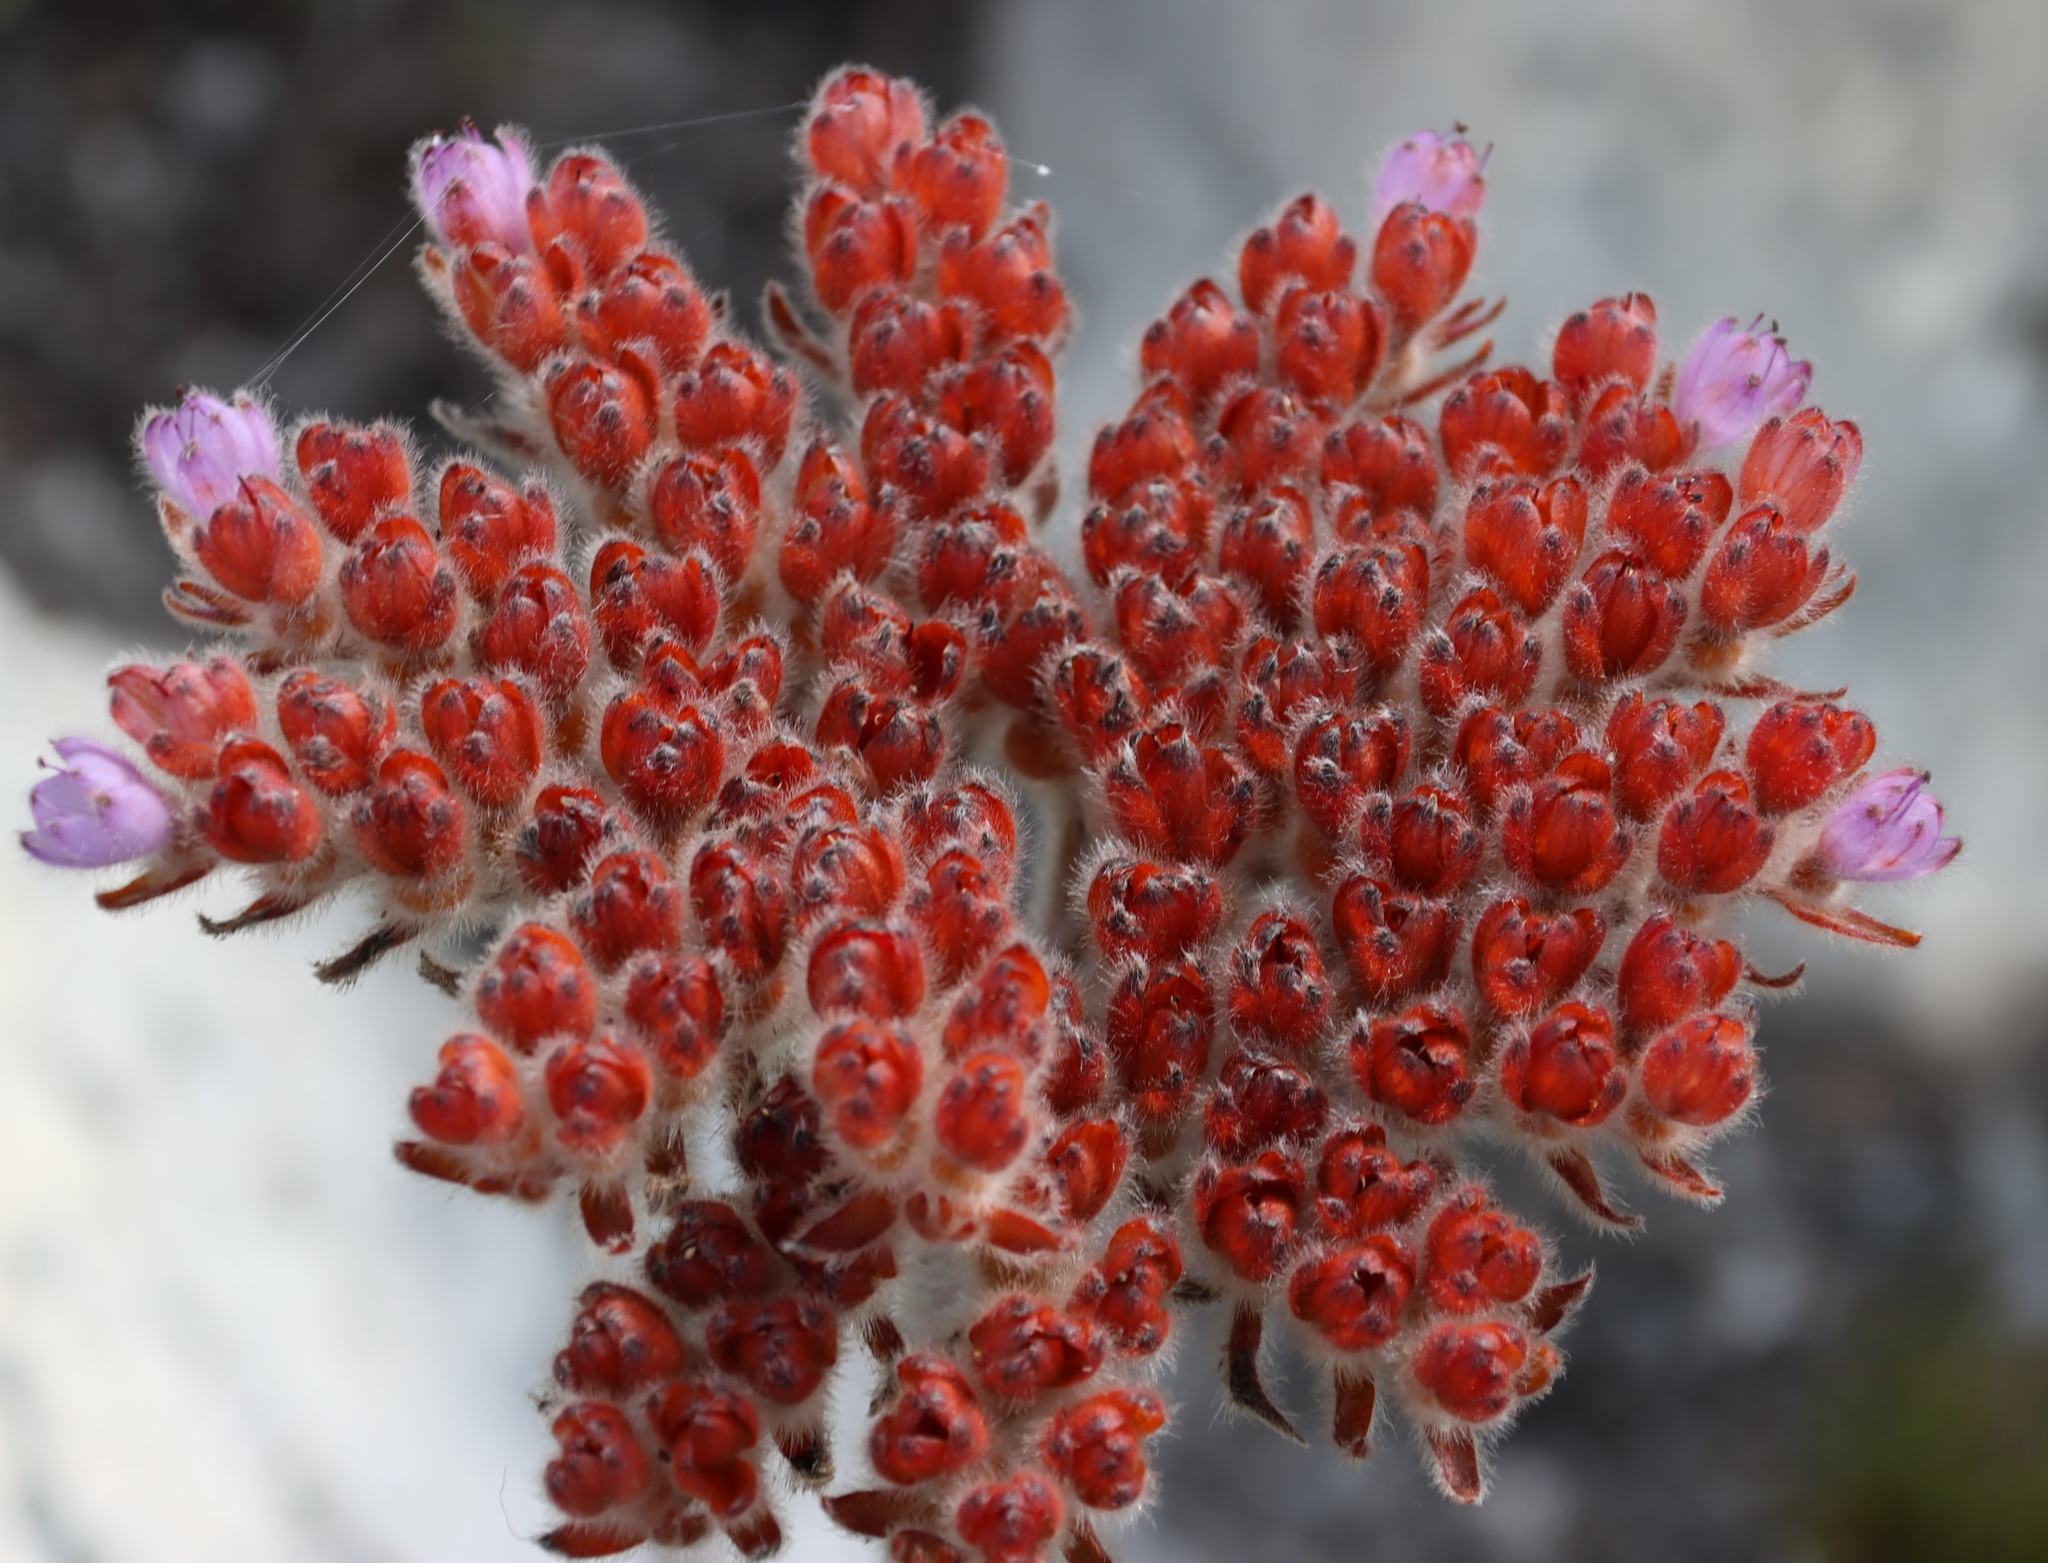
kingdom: Plantae
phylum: Tracheophyta
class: Liliopsida
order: Commelinales
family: Haemodoraceae
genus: Dilatris
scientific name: Dilatris corymbosa
